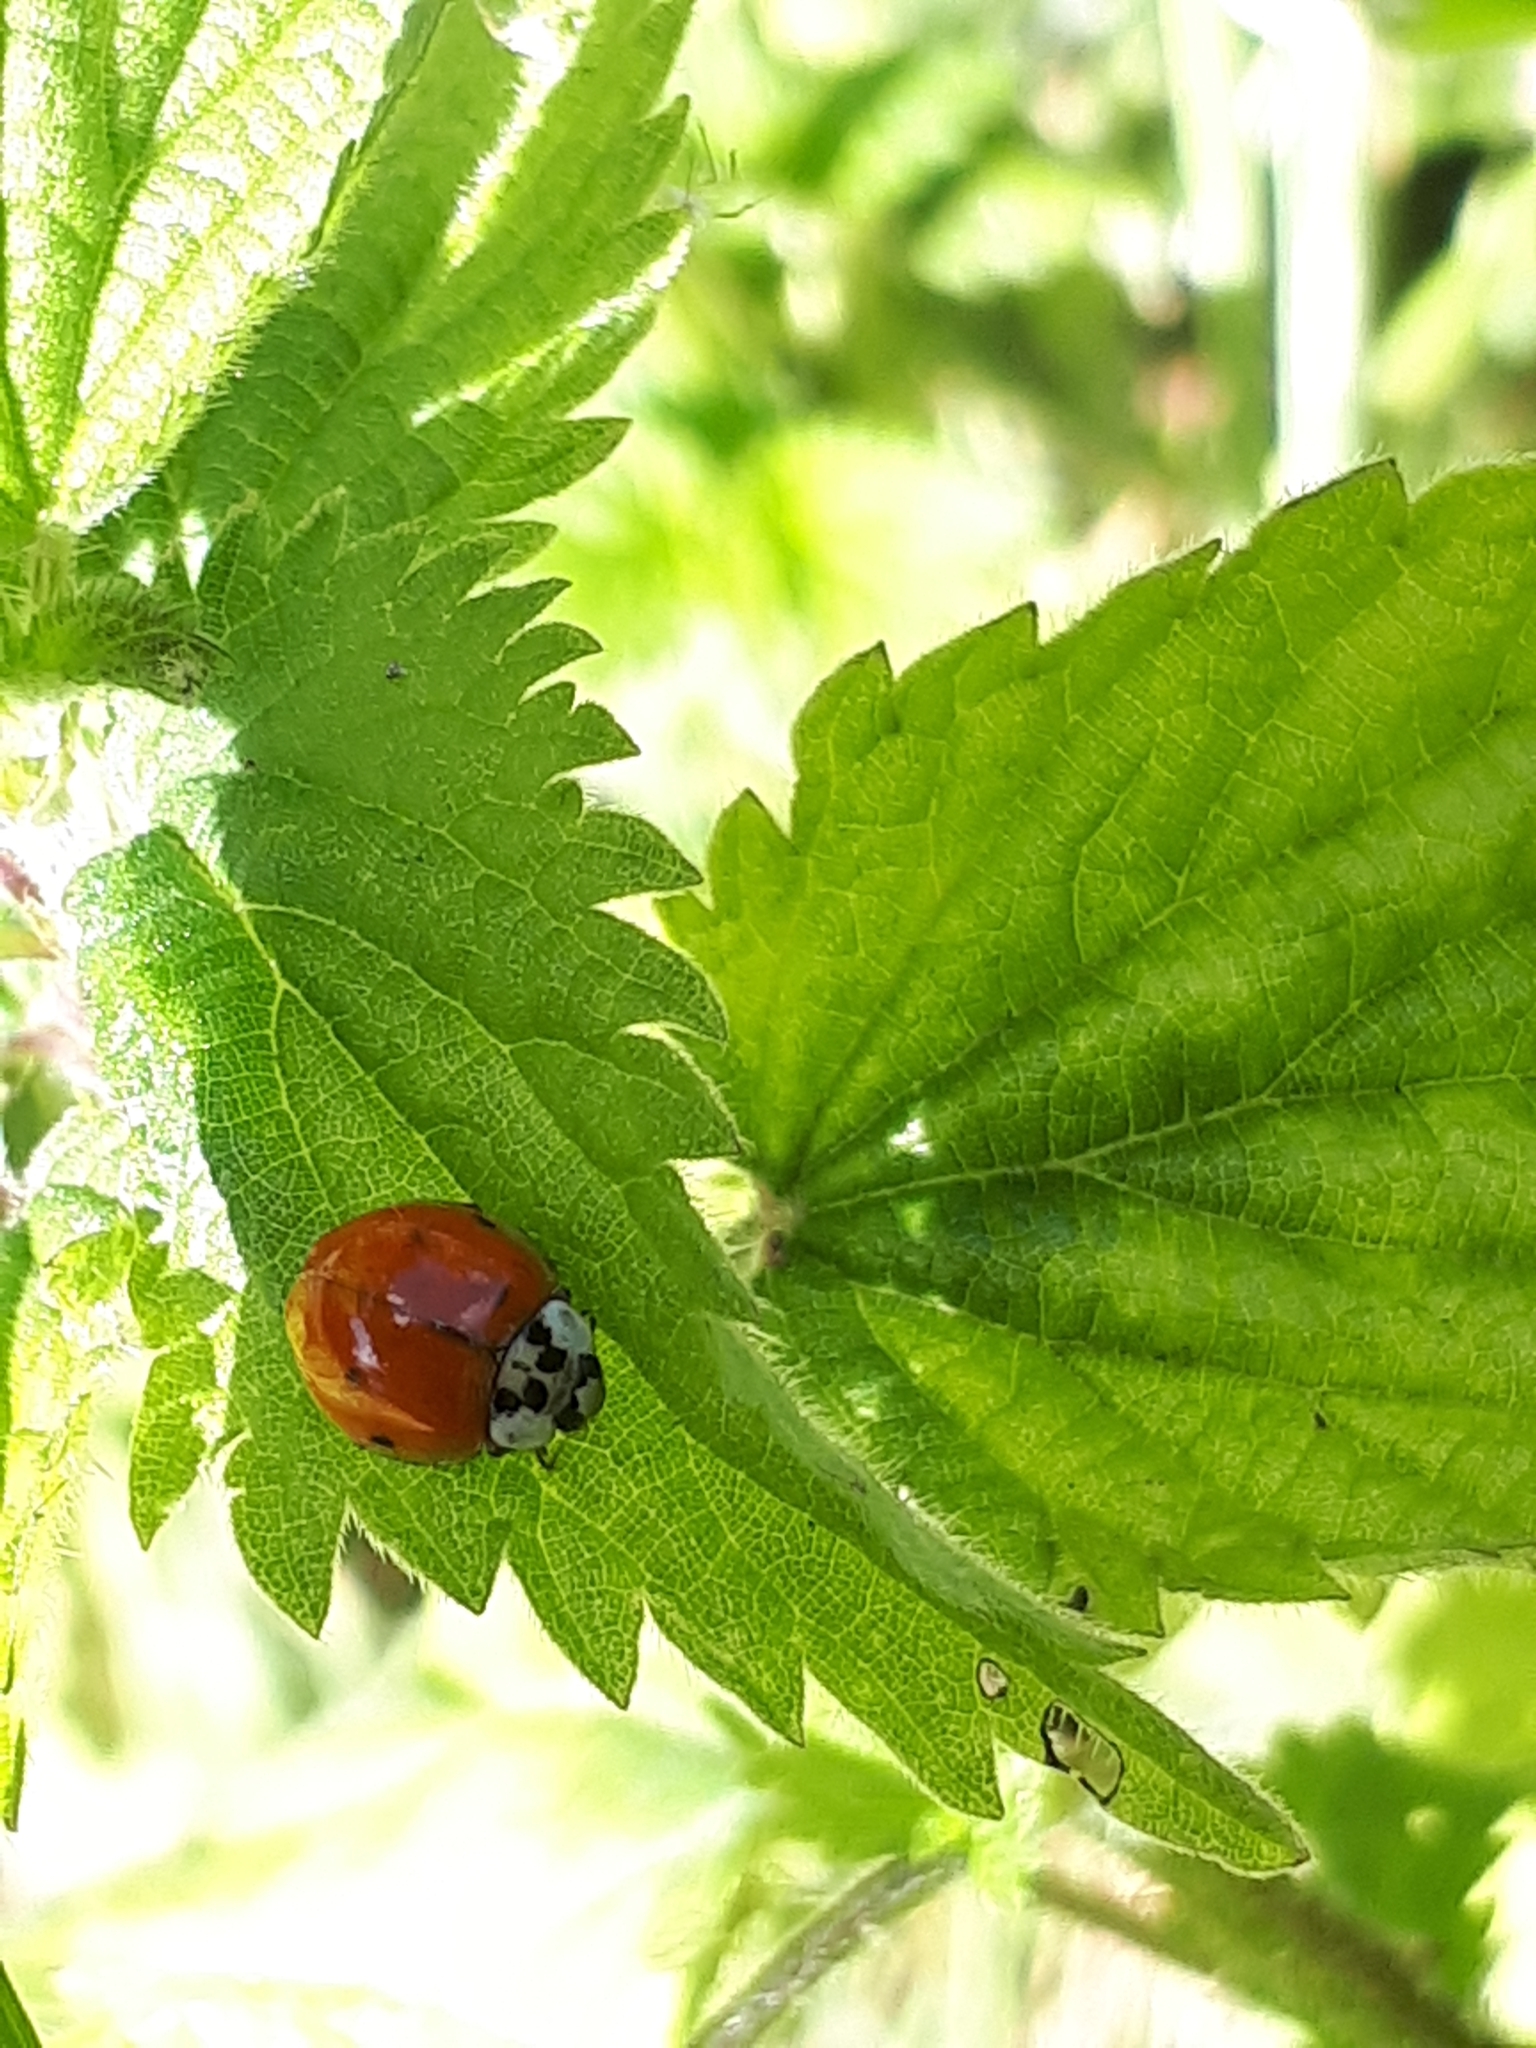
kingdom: Animalia
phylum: Arthropoda
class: Insecta
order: Coleoptera
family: Coccinellidae
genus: Harmonia
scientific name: Harmonia axyridis
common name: Harlequin ladybird
